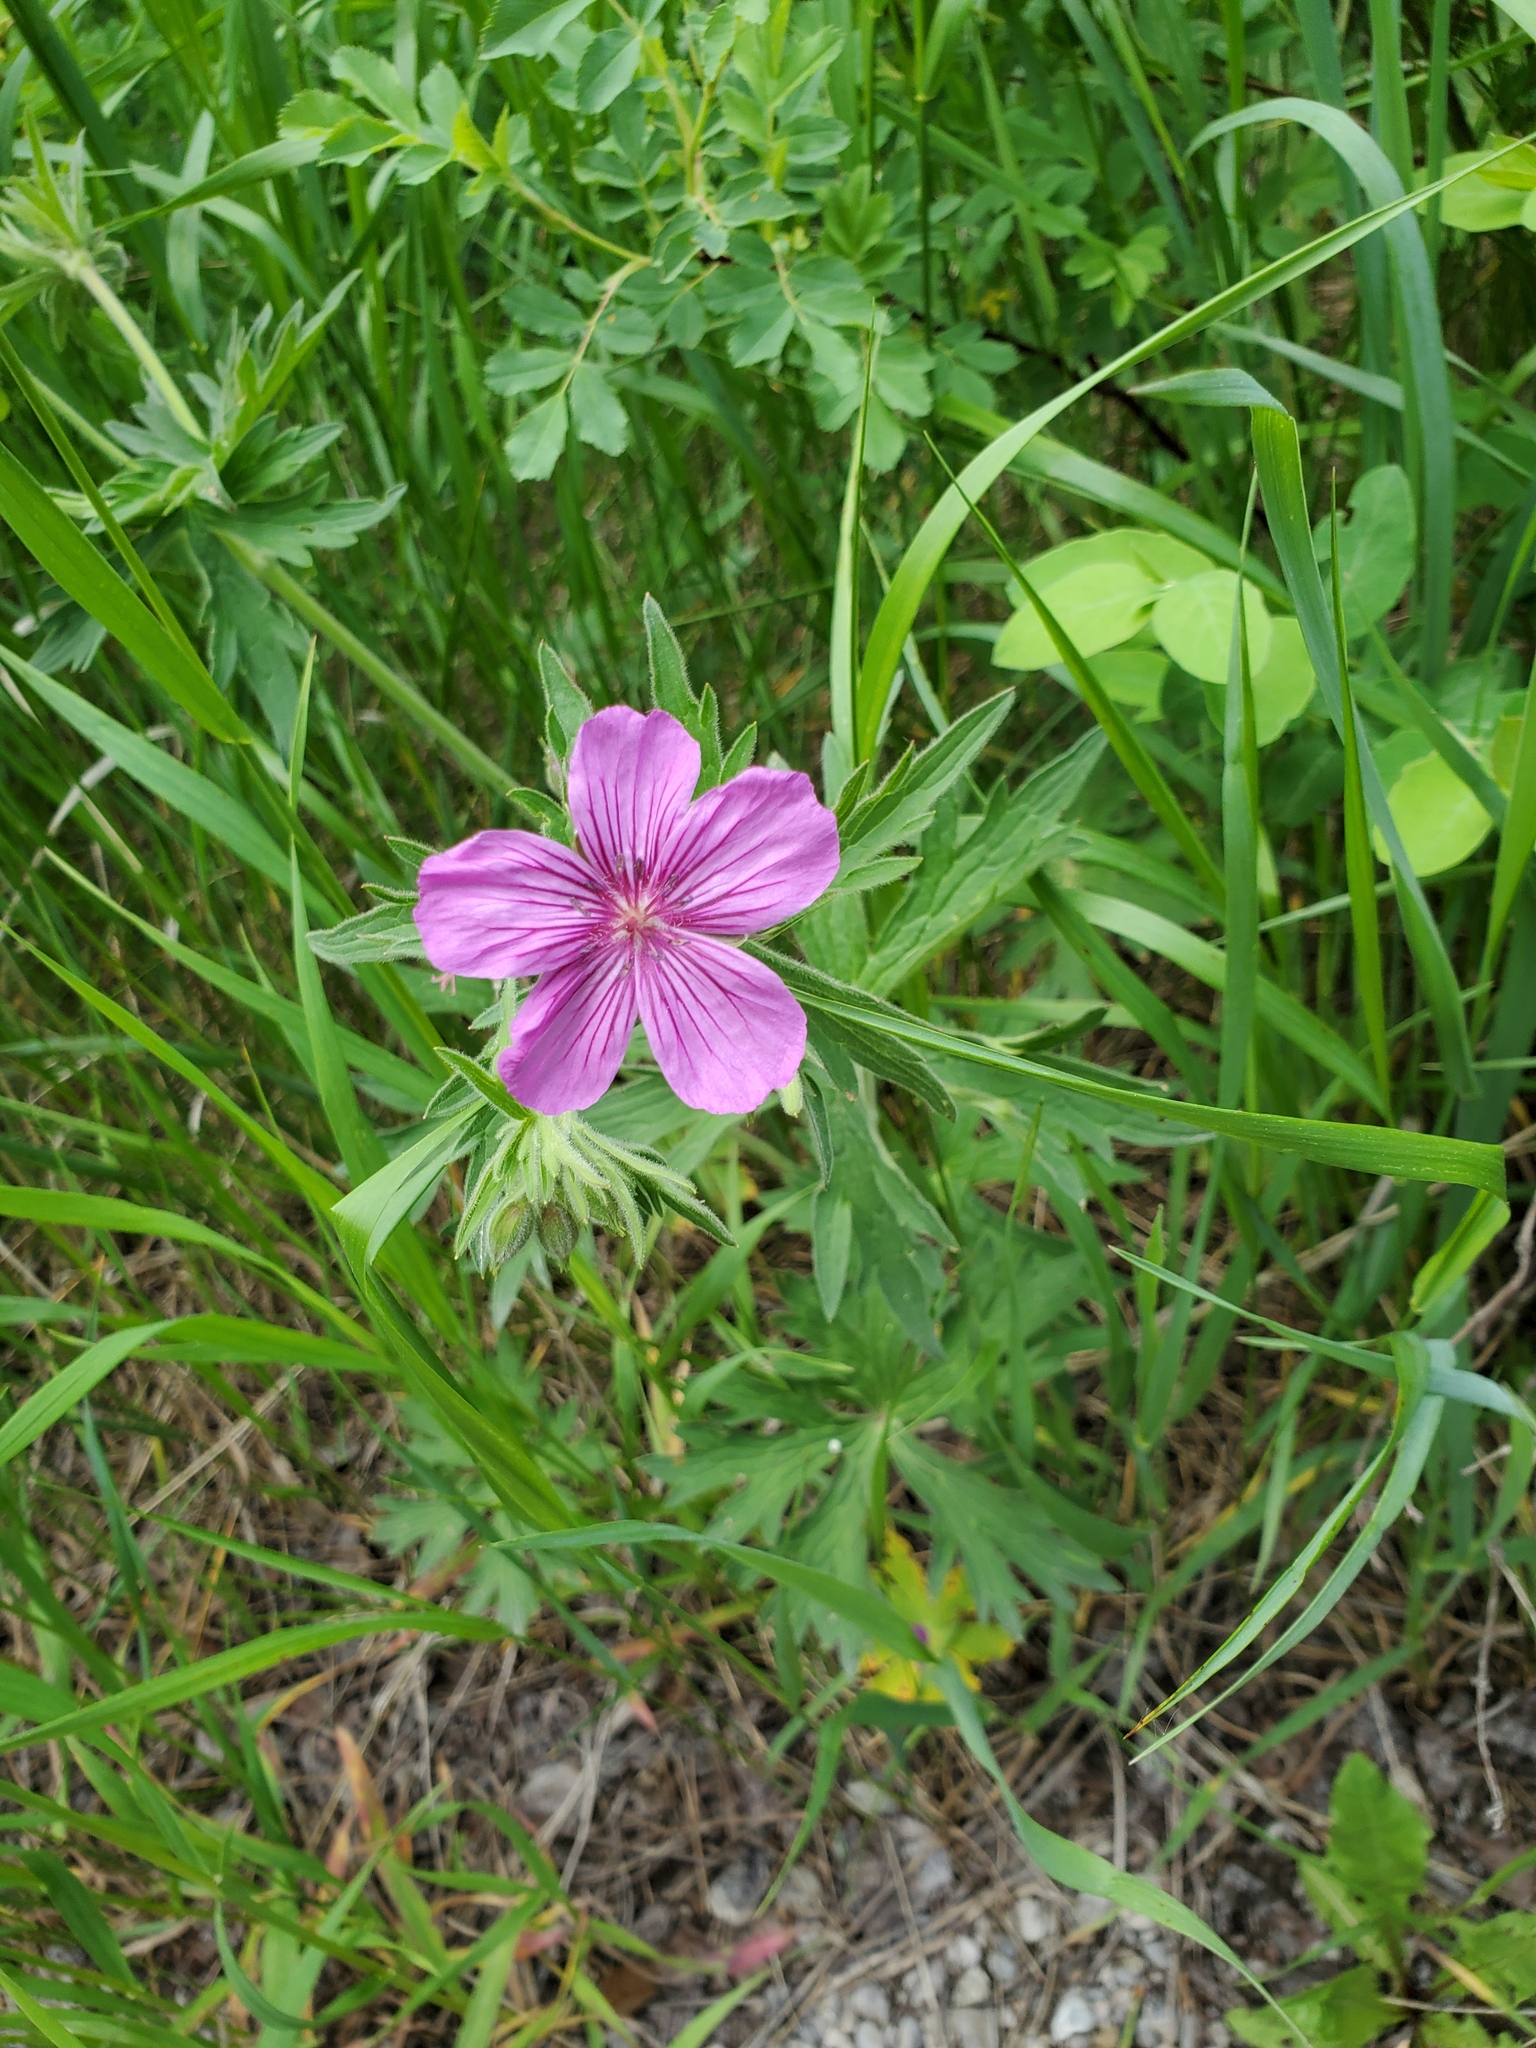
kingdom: Plantae
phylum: Tracheophyta
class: Magnoliopsida
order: Geraniales
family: Geraniaceae
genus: Geranium
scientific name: Geranium viscosissimum
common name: Purple geranium
